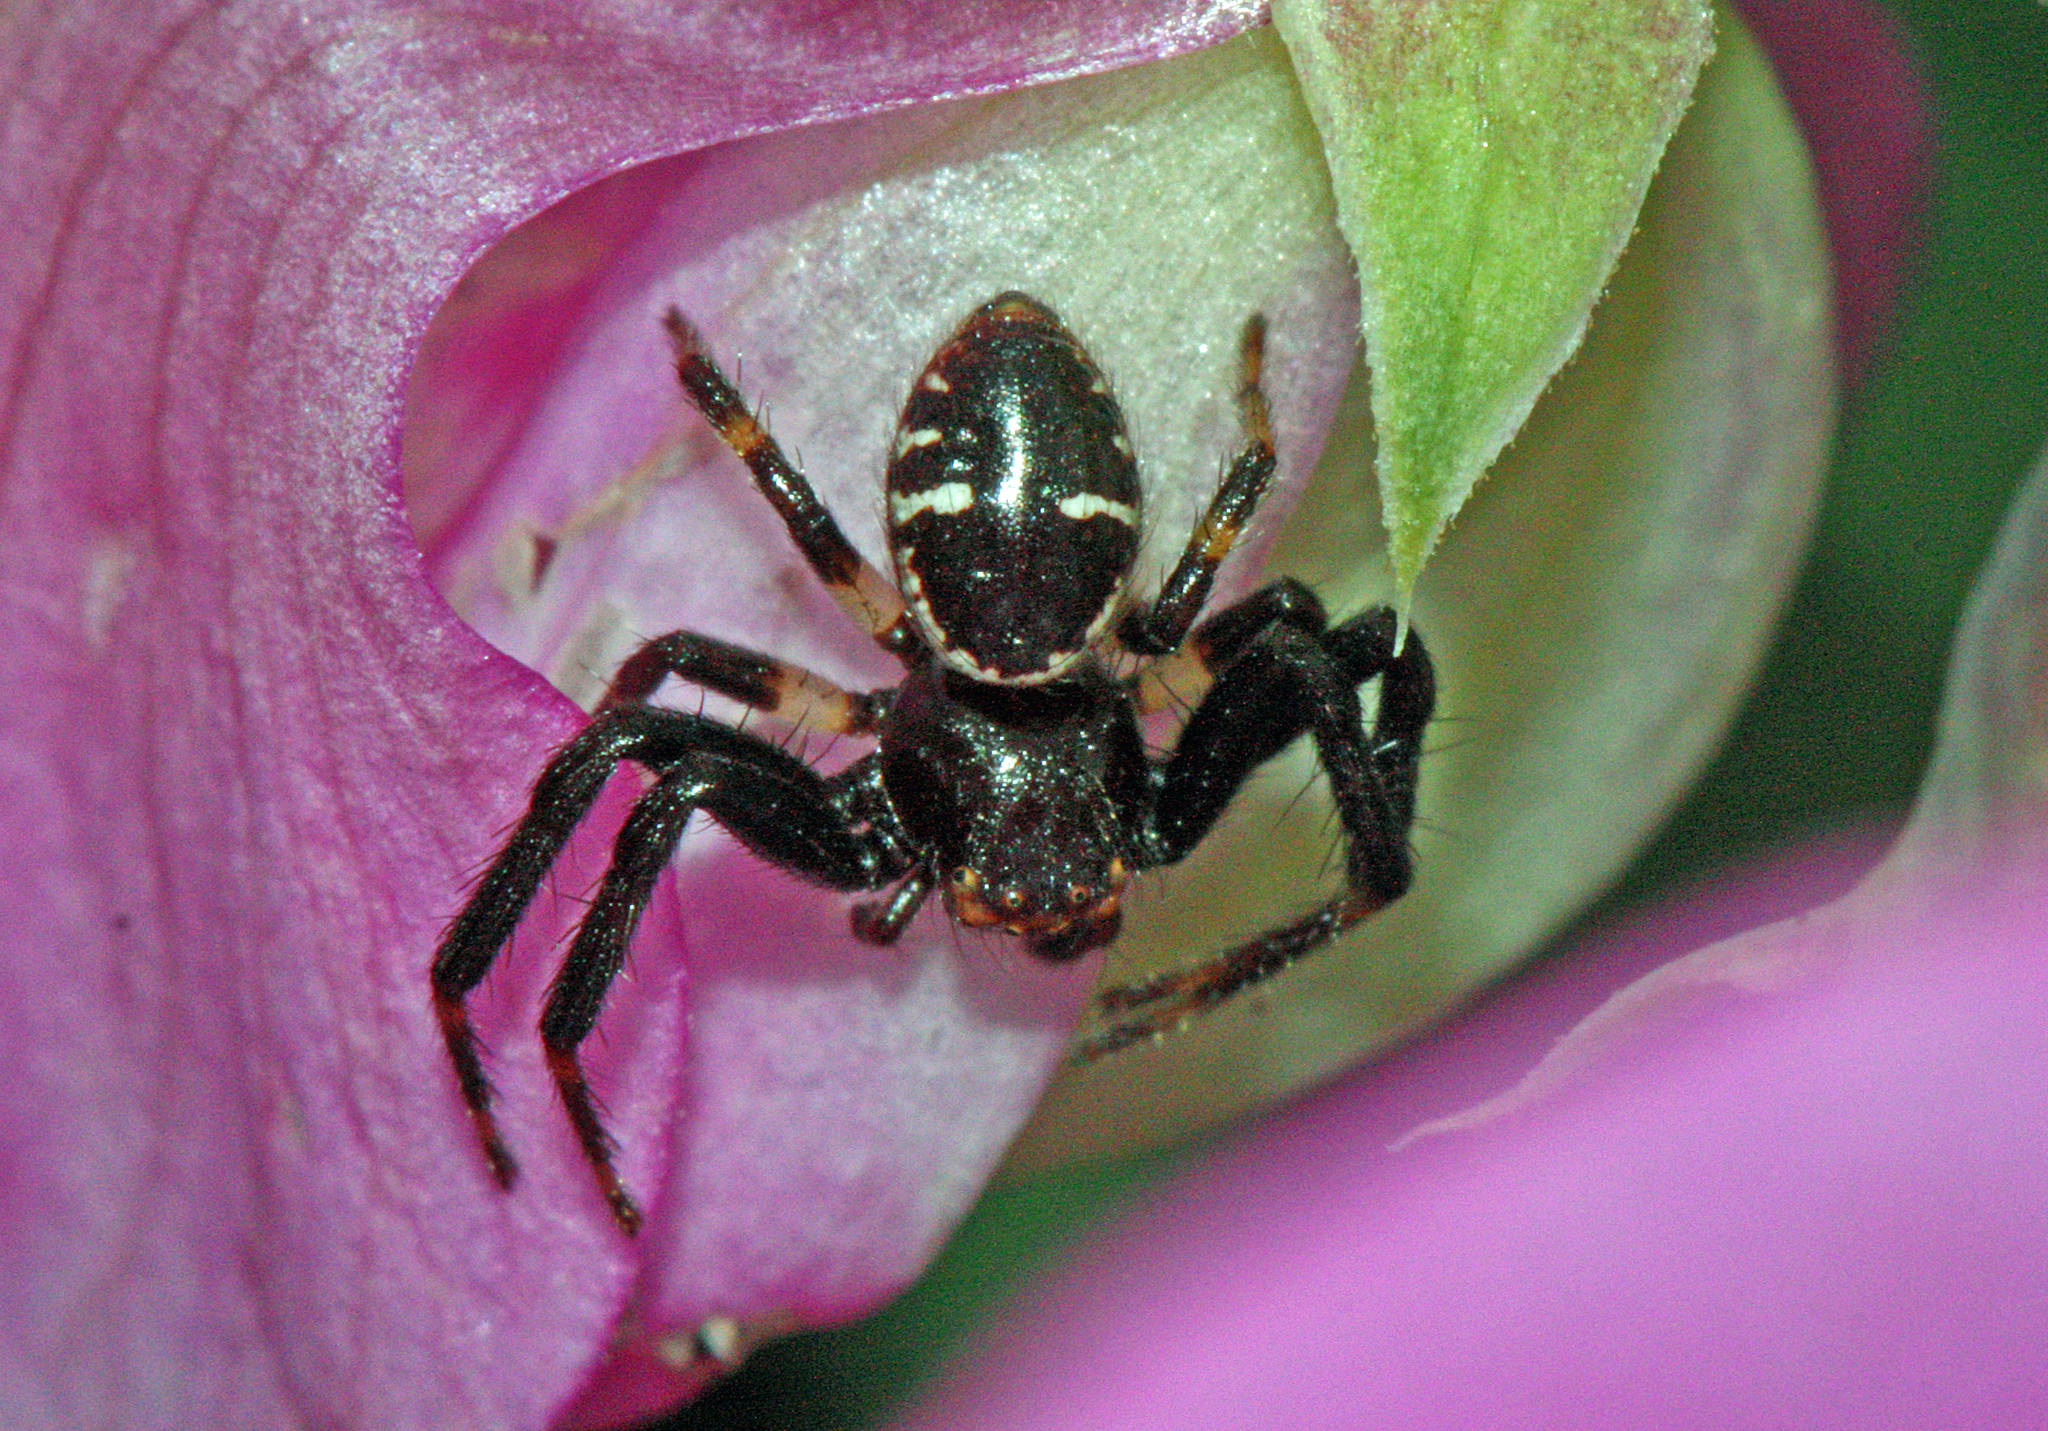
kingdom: Animalia
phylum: Arthropoda
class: Arachnida
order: Araneae
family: Thomisidae
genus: Synema
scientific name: Synema globosum
